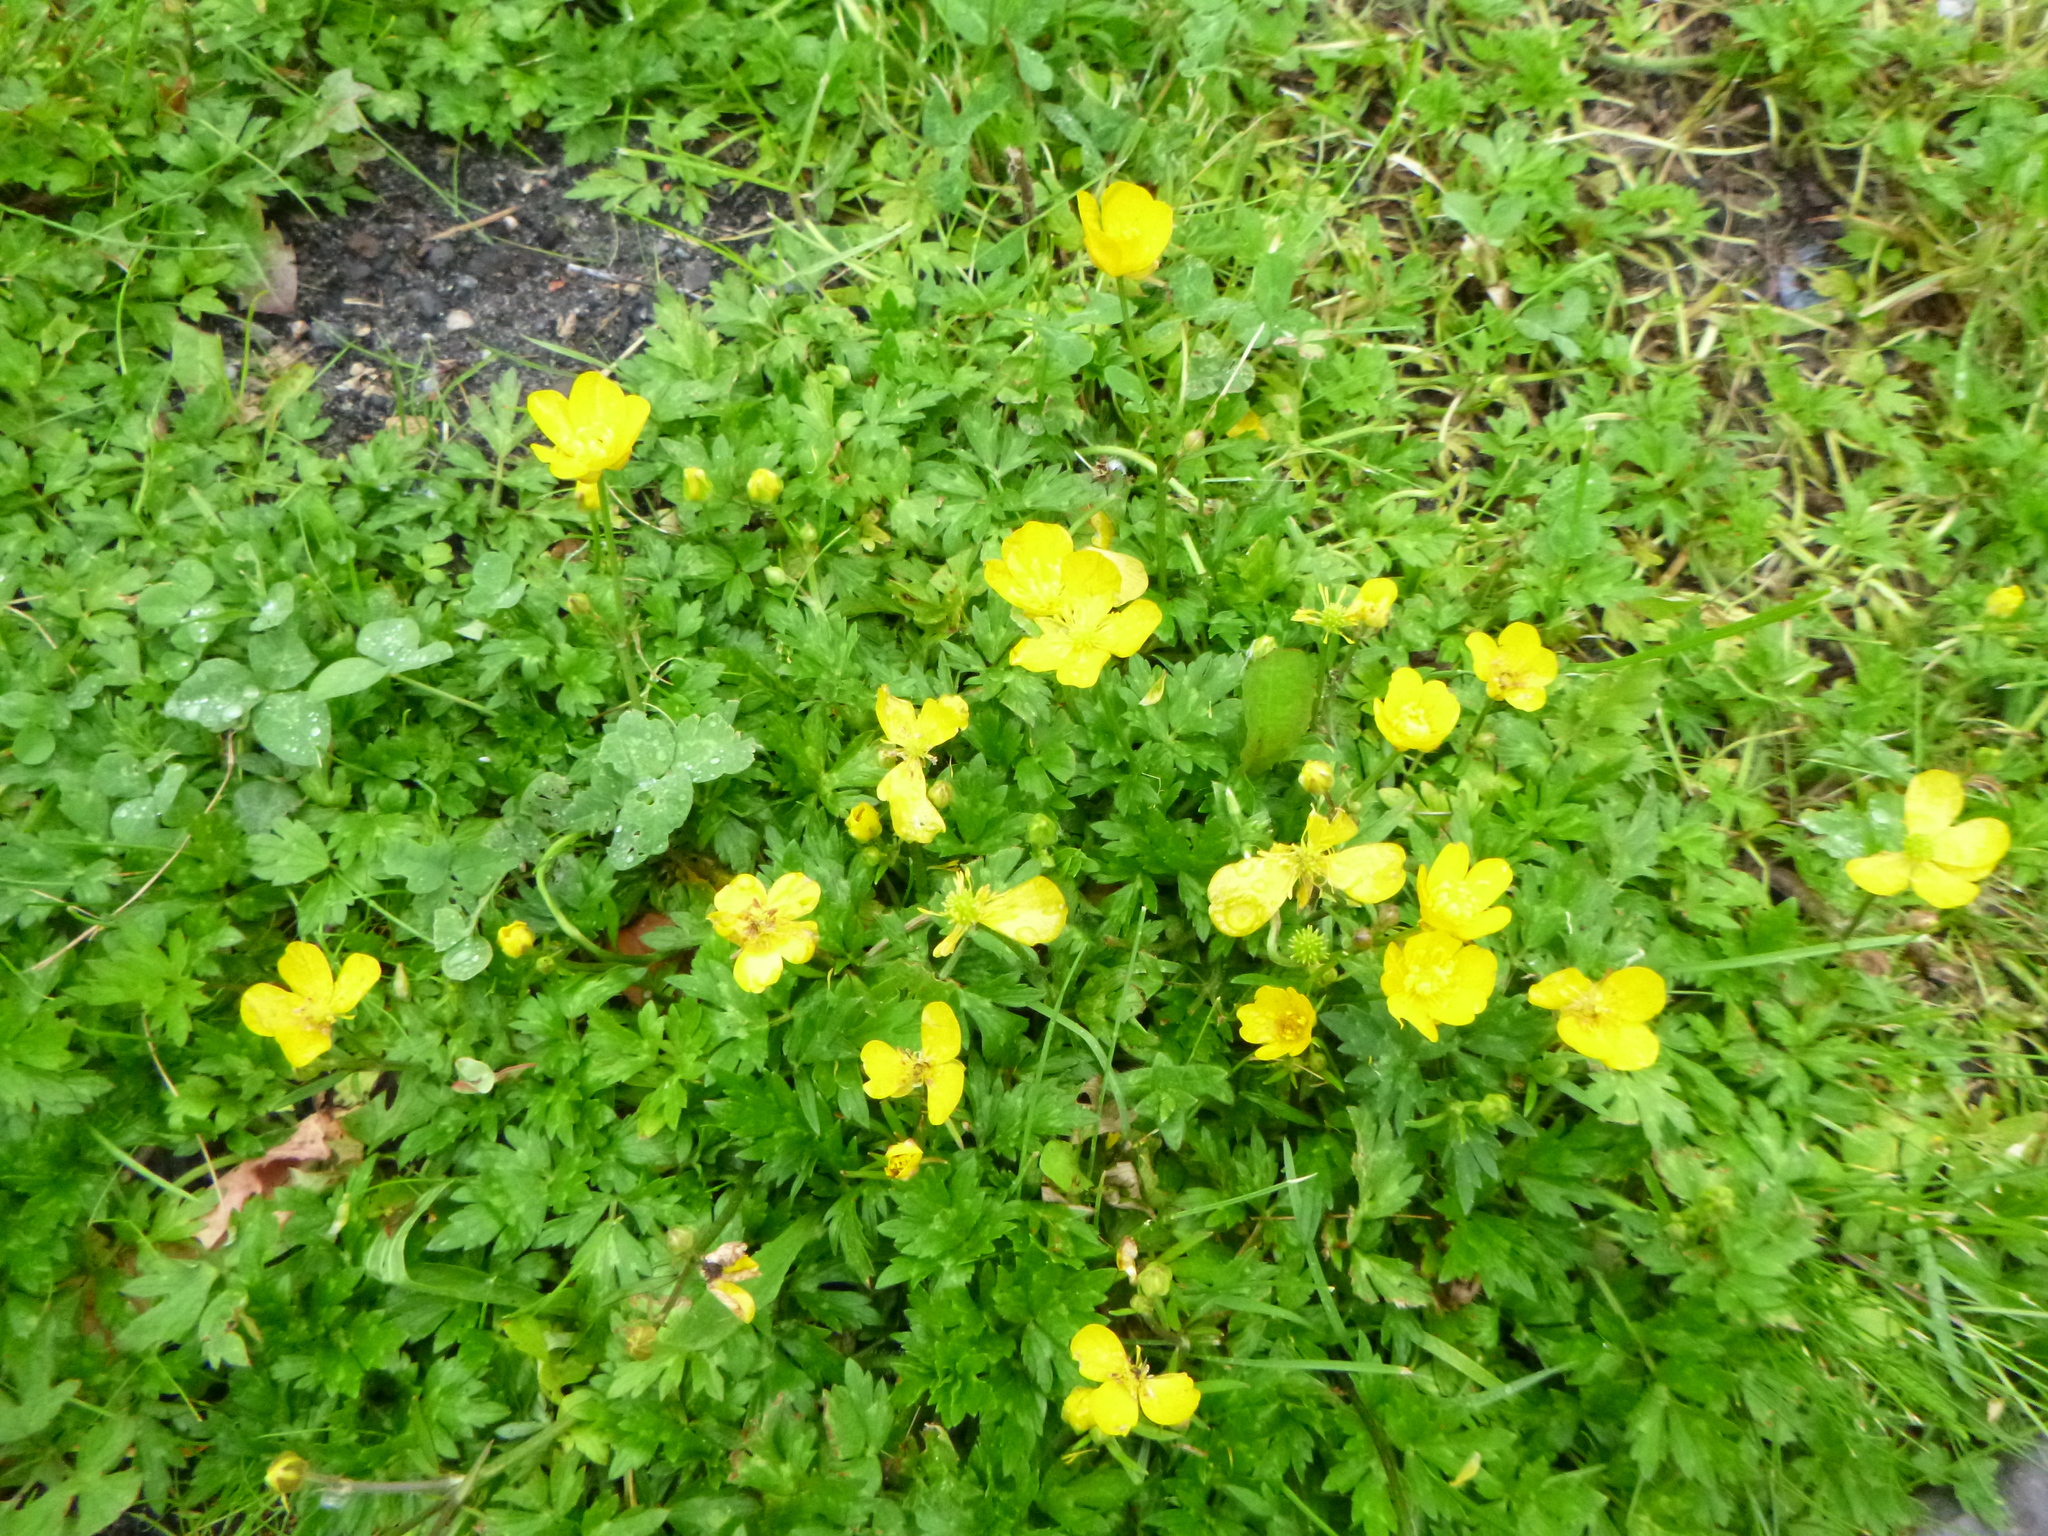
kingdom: Plantae
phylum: Tracheophyta
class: Magnoliopsida
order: Ranunculales
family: Ranunculaceae
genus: Ranunculus
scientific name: Ranunculus repens
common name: Creeping buttercup
